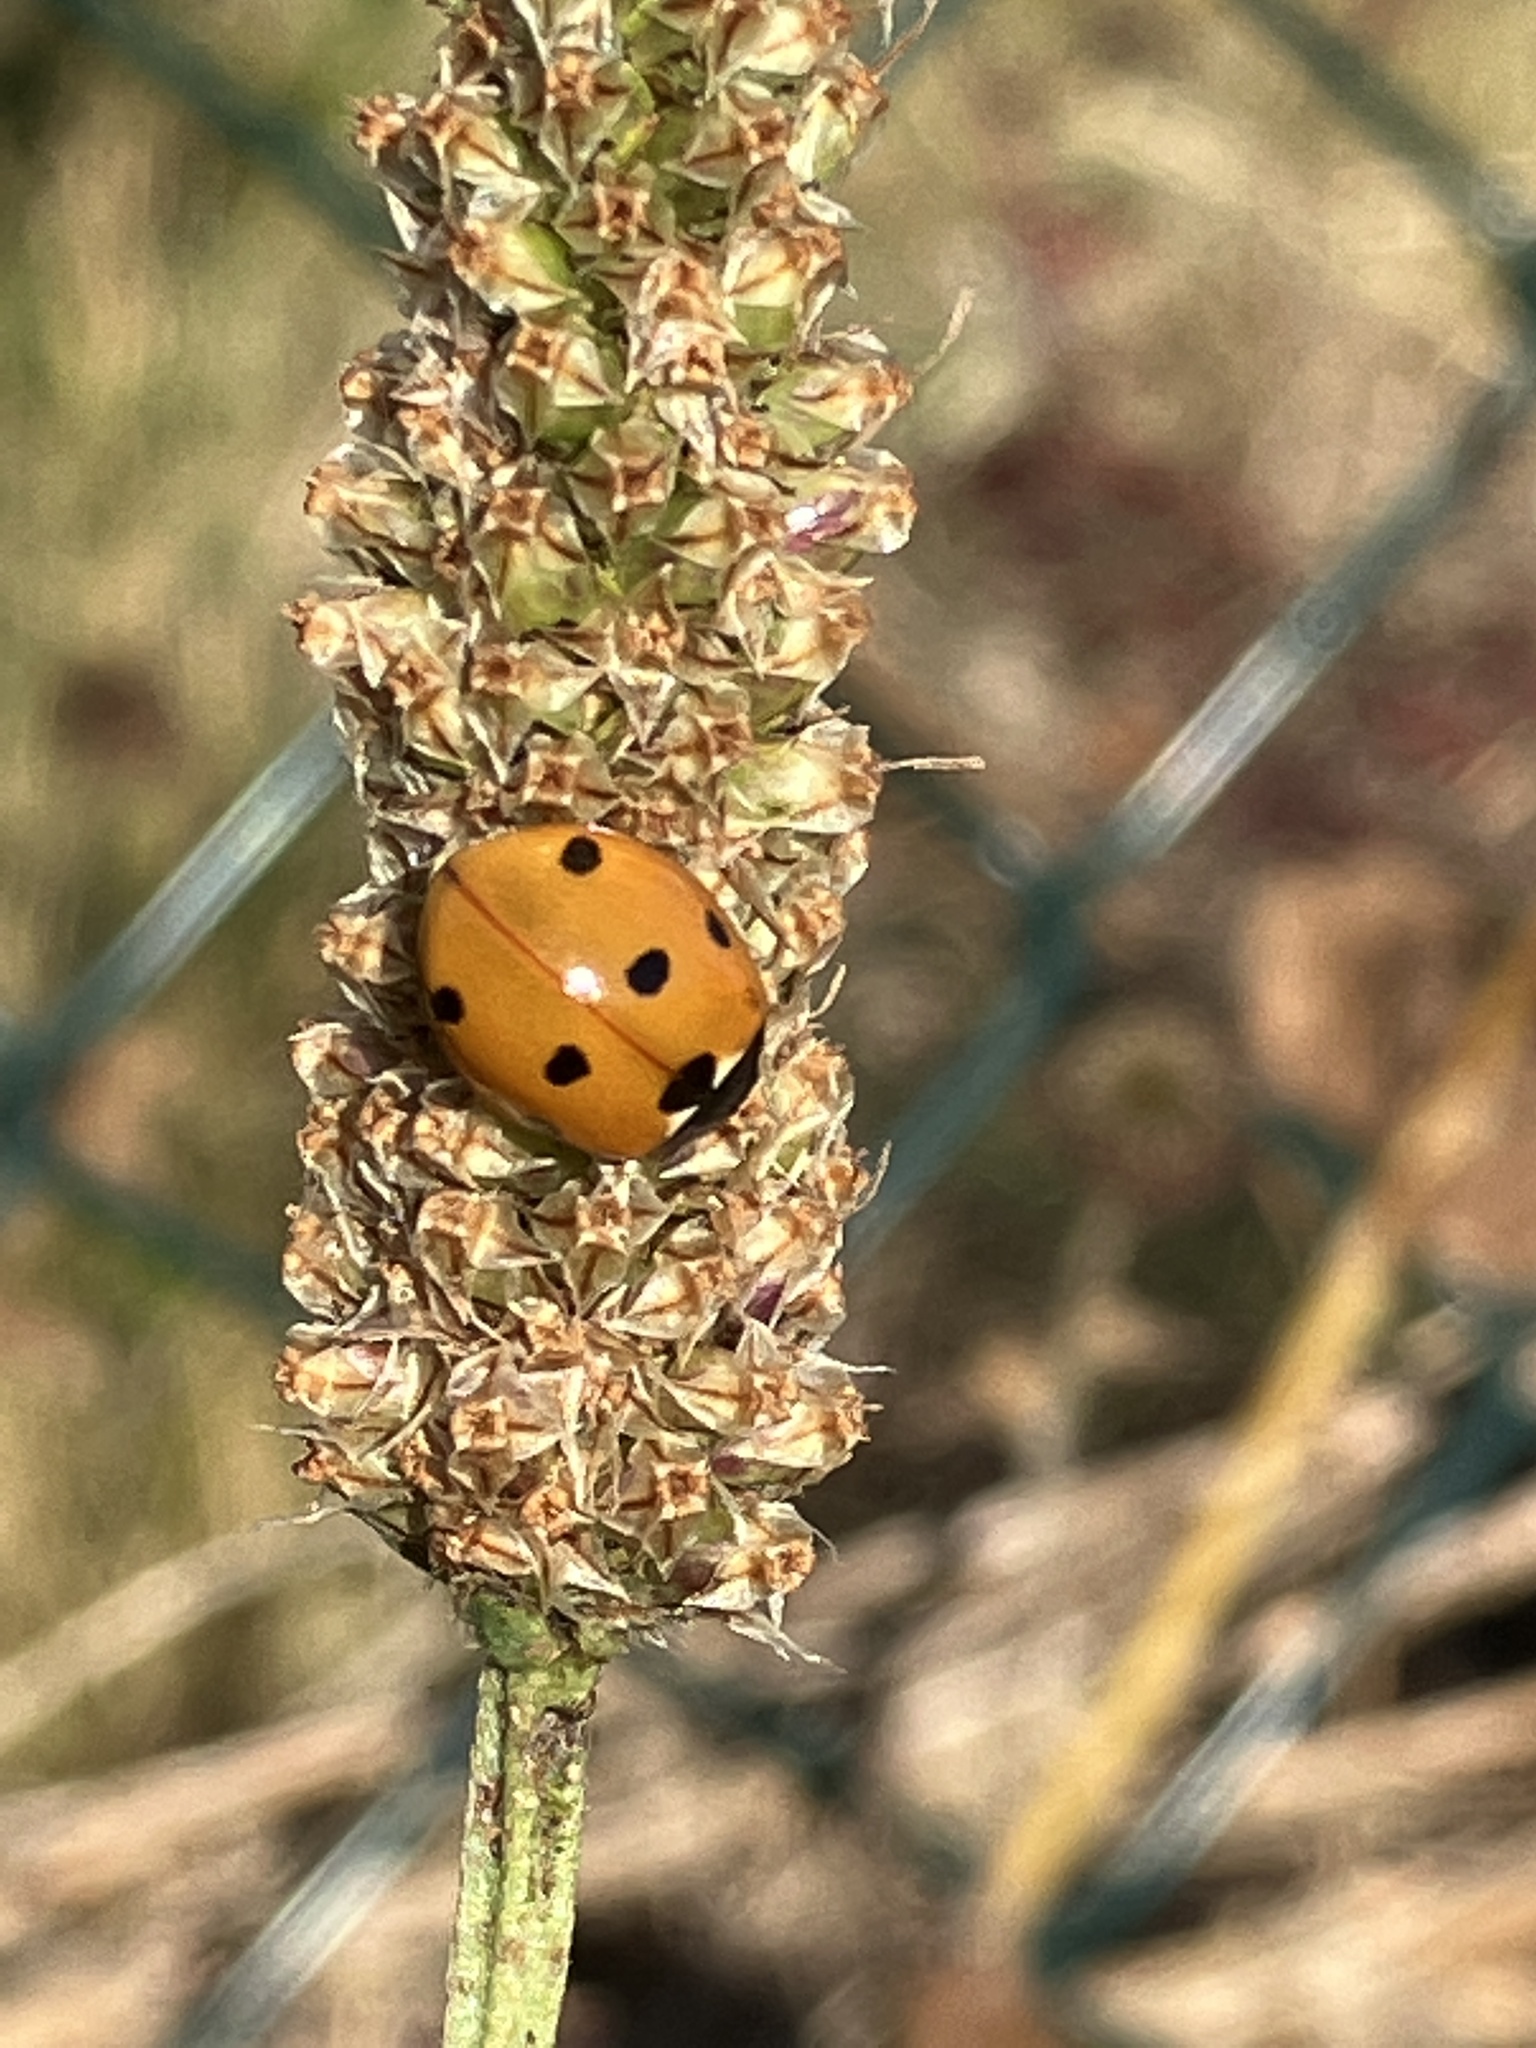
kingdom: Animalia
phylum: Arthropoda
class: Insecta
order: Coleoptera
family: Coccinellidae
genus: Coccinella
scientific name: Coccinella septempunctata
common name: Sevenspotted lady beetle
